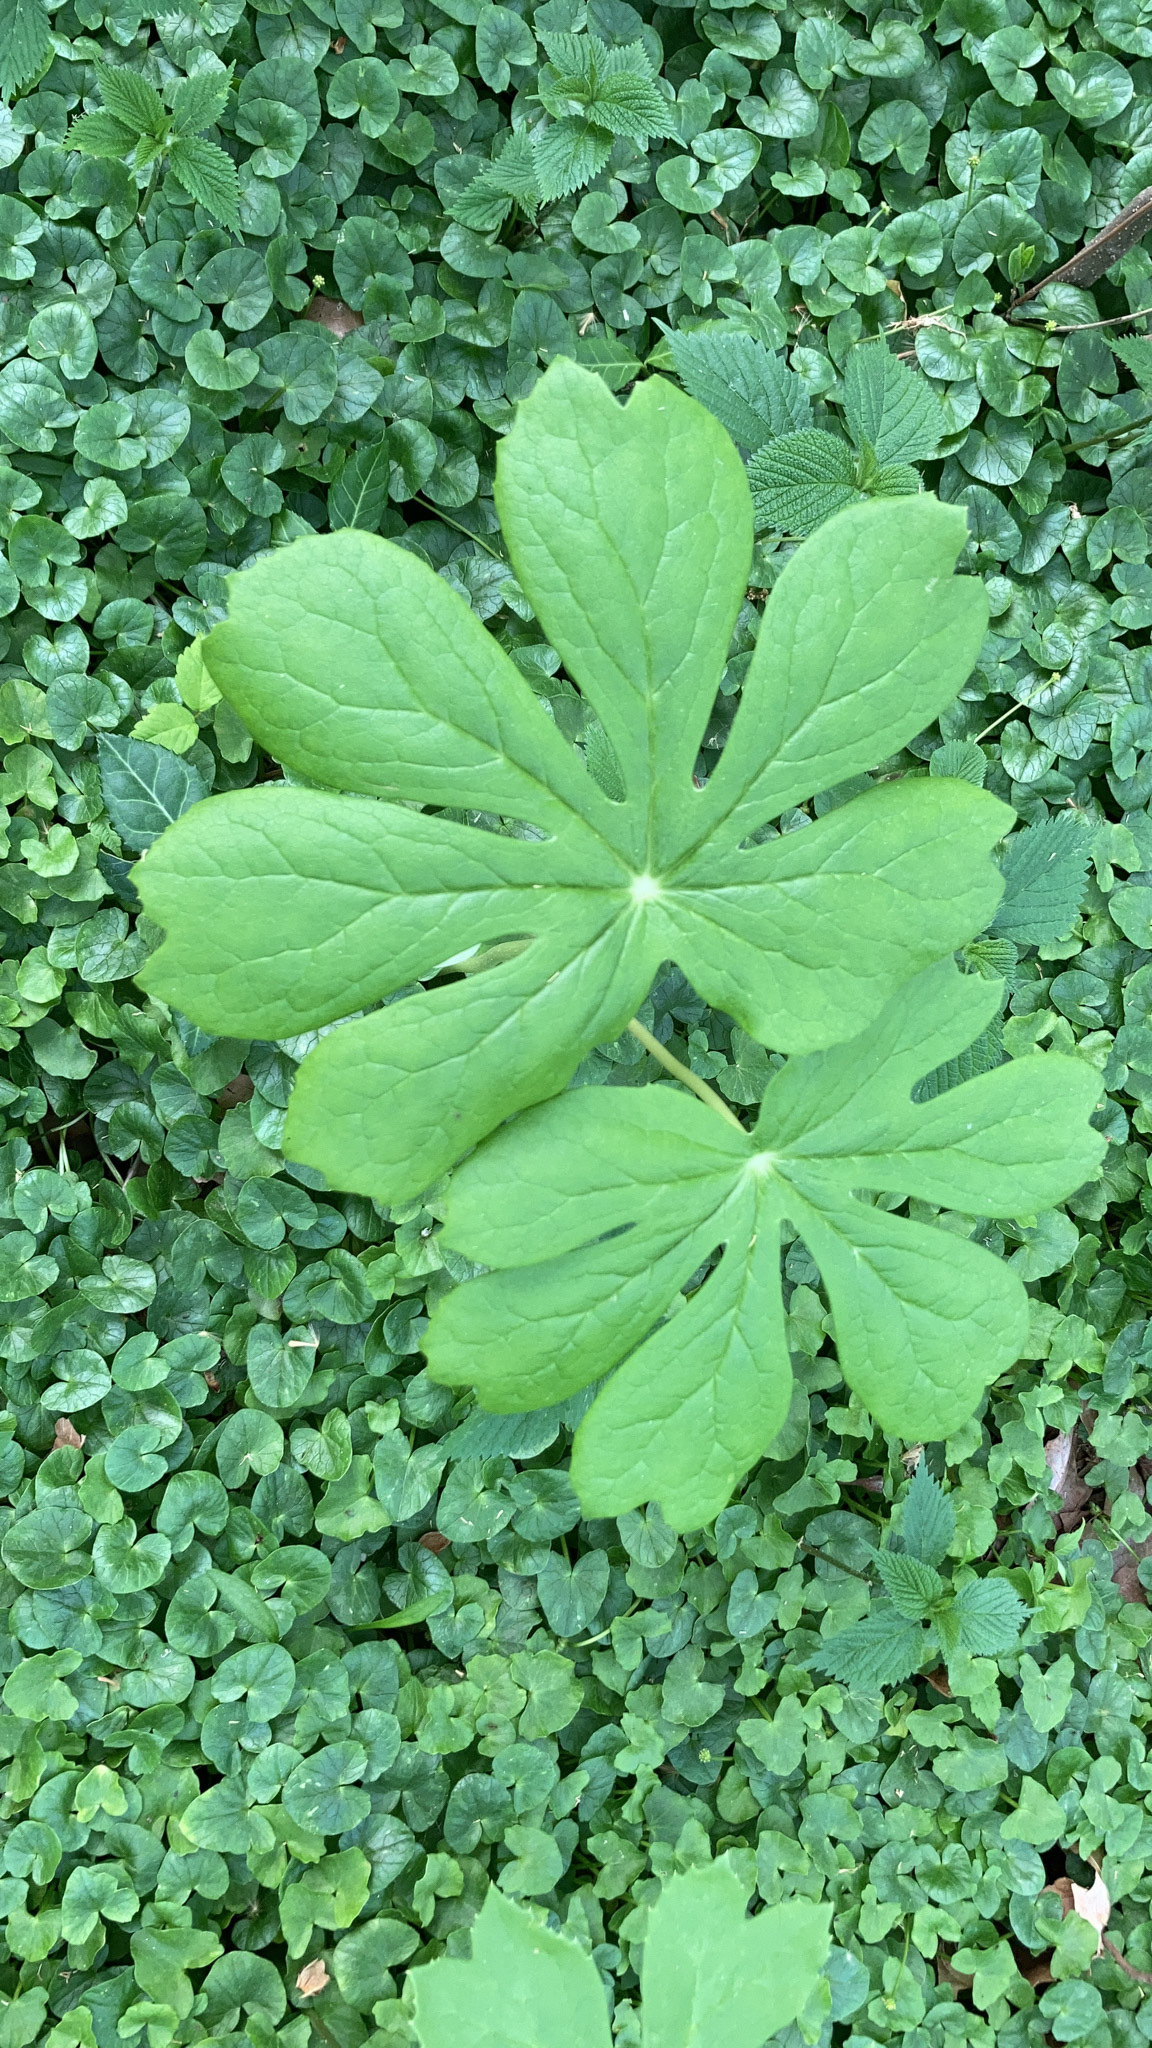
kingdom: Plantae
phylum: Tracheophyta
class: Magnoliopsida
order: Ranunculales
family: Berberidaceae
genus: Podophyllum
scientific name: Podophyllum peltatum
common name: Wild mandrake
